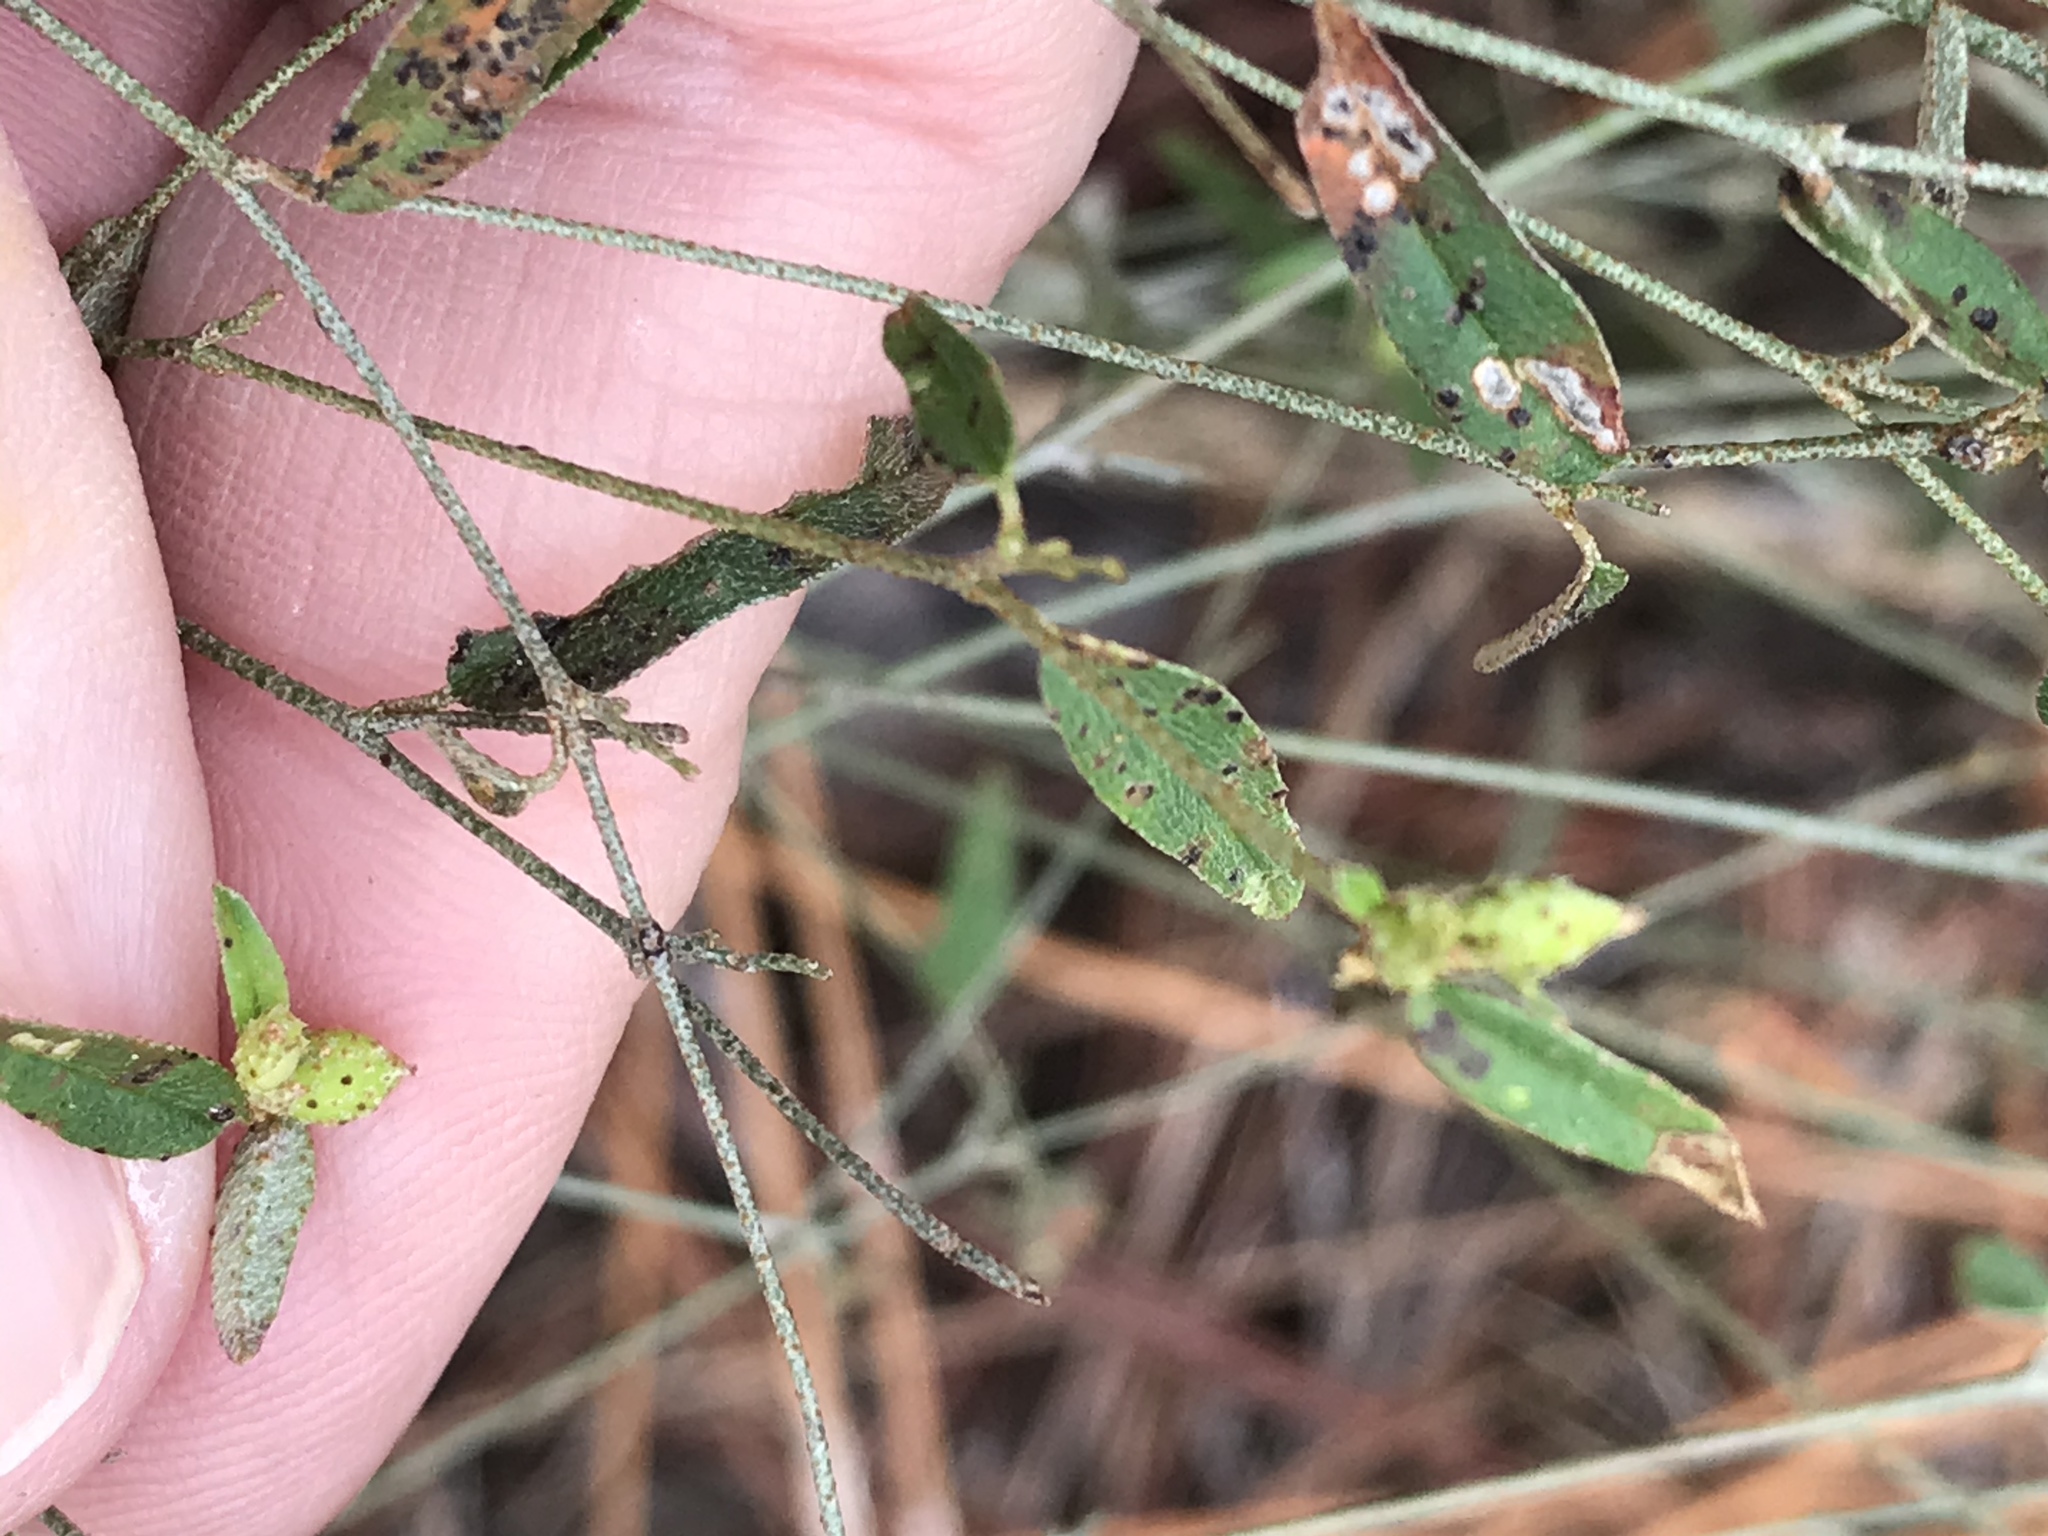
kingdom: Plantae
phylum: Tracheophyta
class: Magnoliopsida
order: Malpighiales
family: Euphorbiaceae
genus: Croton
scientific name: Croton michauxii
